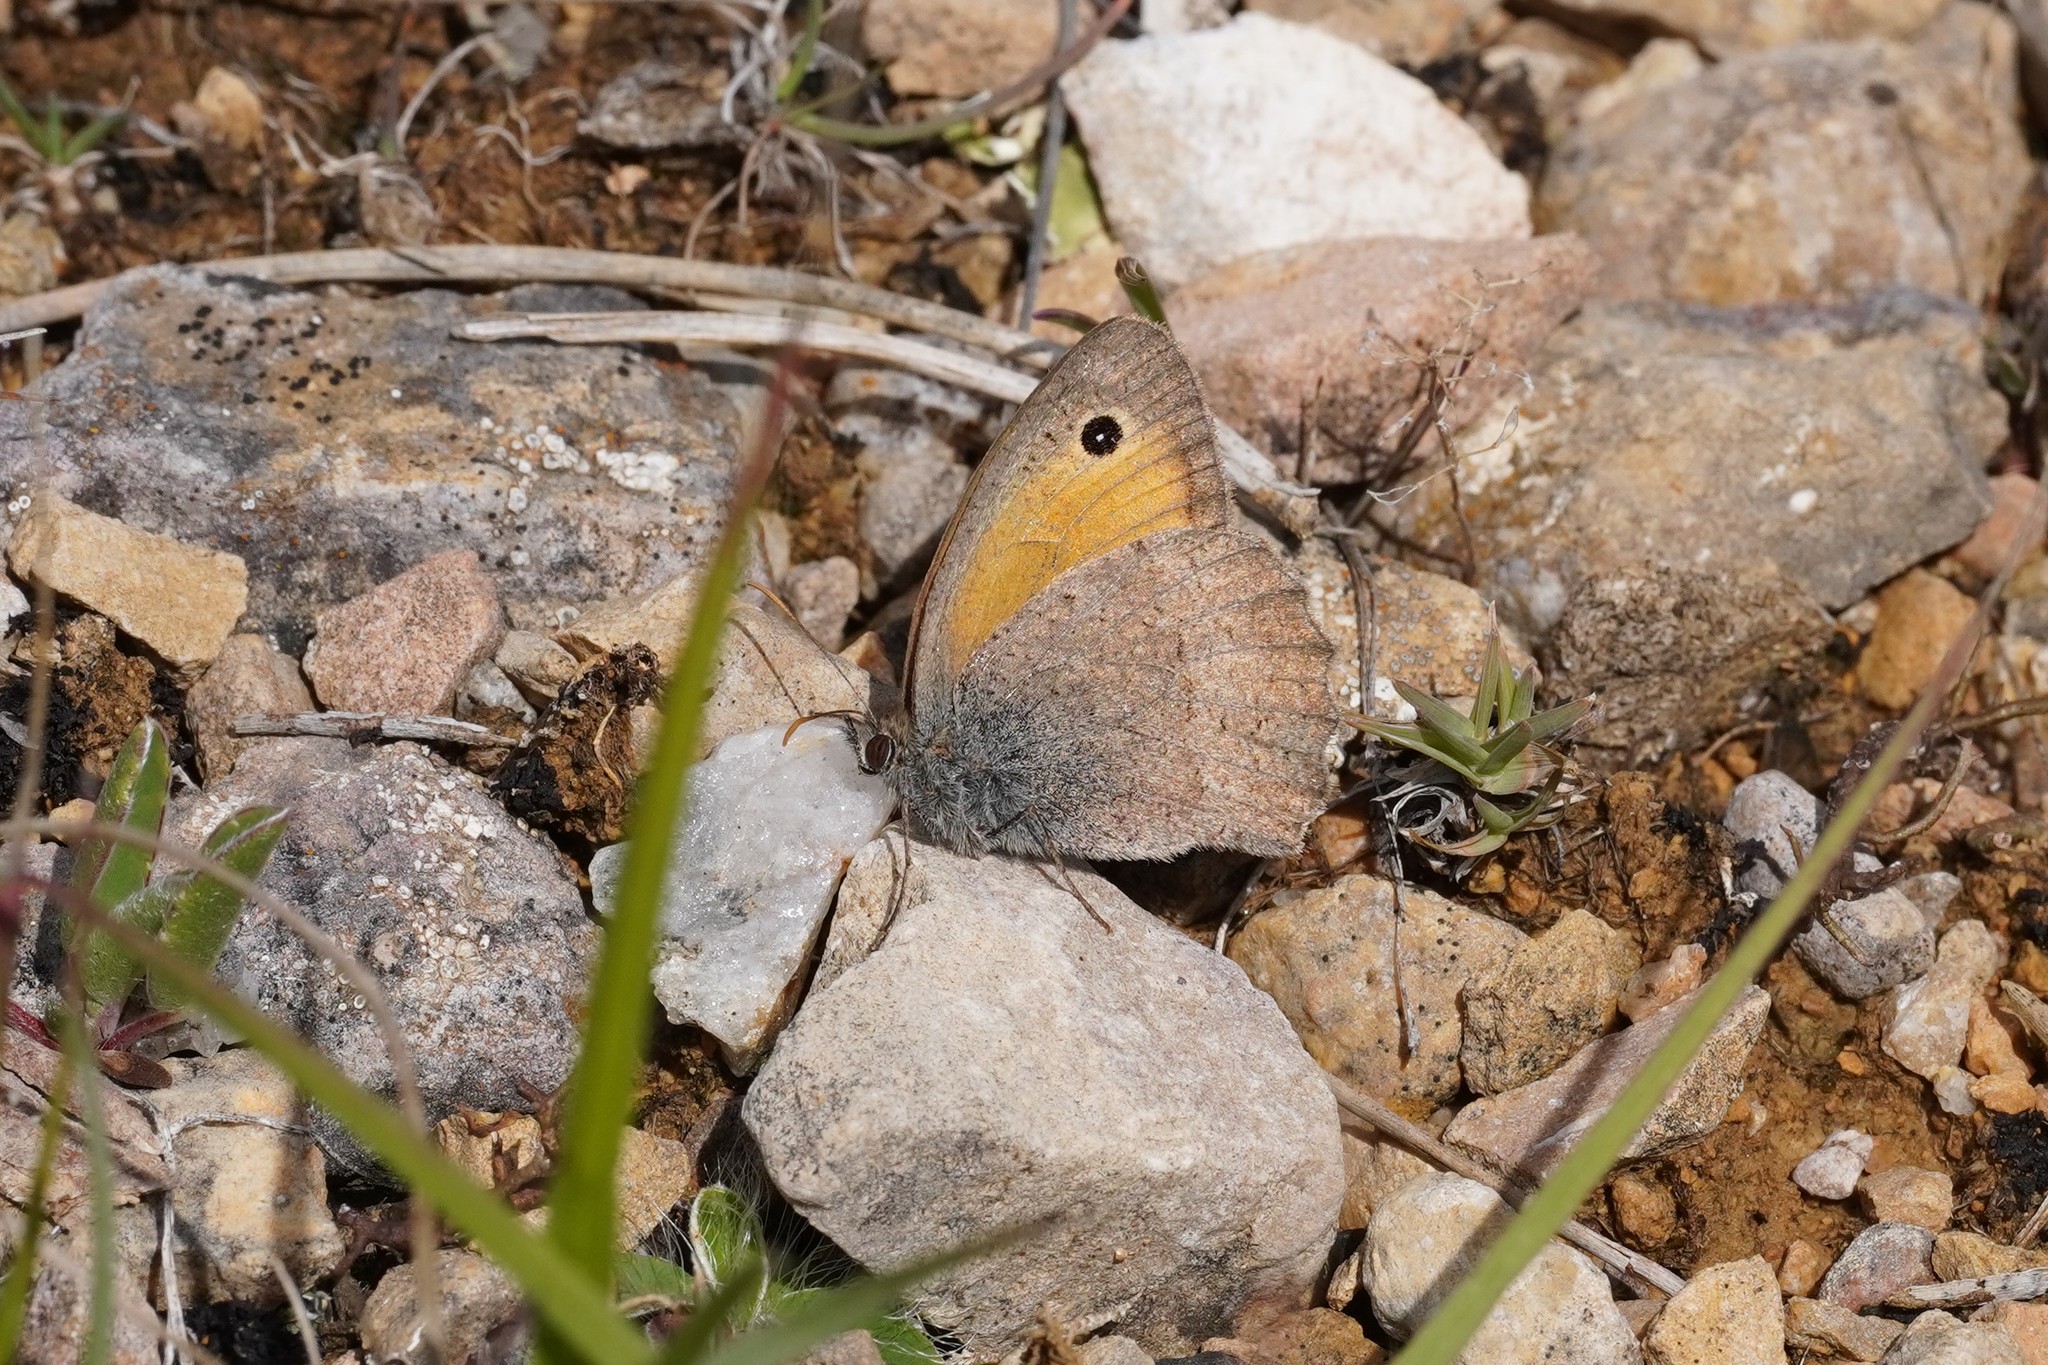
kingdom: Animalia
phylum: Arthropoda
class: Insecta
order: Lepidoptera
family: Nymphalidae
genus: Hyponephele
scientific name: Hyponephele lycaon
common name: Dusky meadow brown
